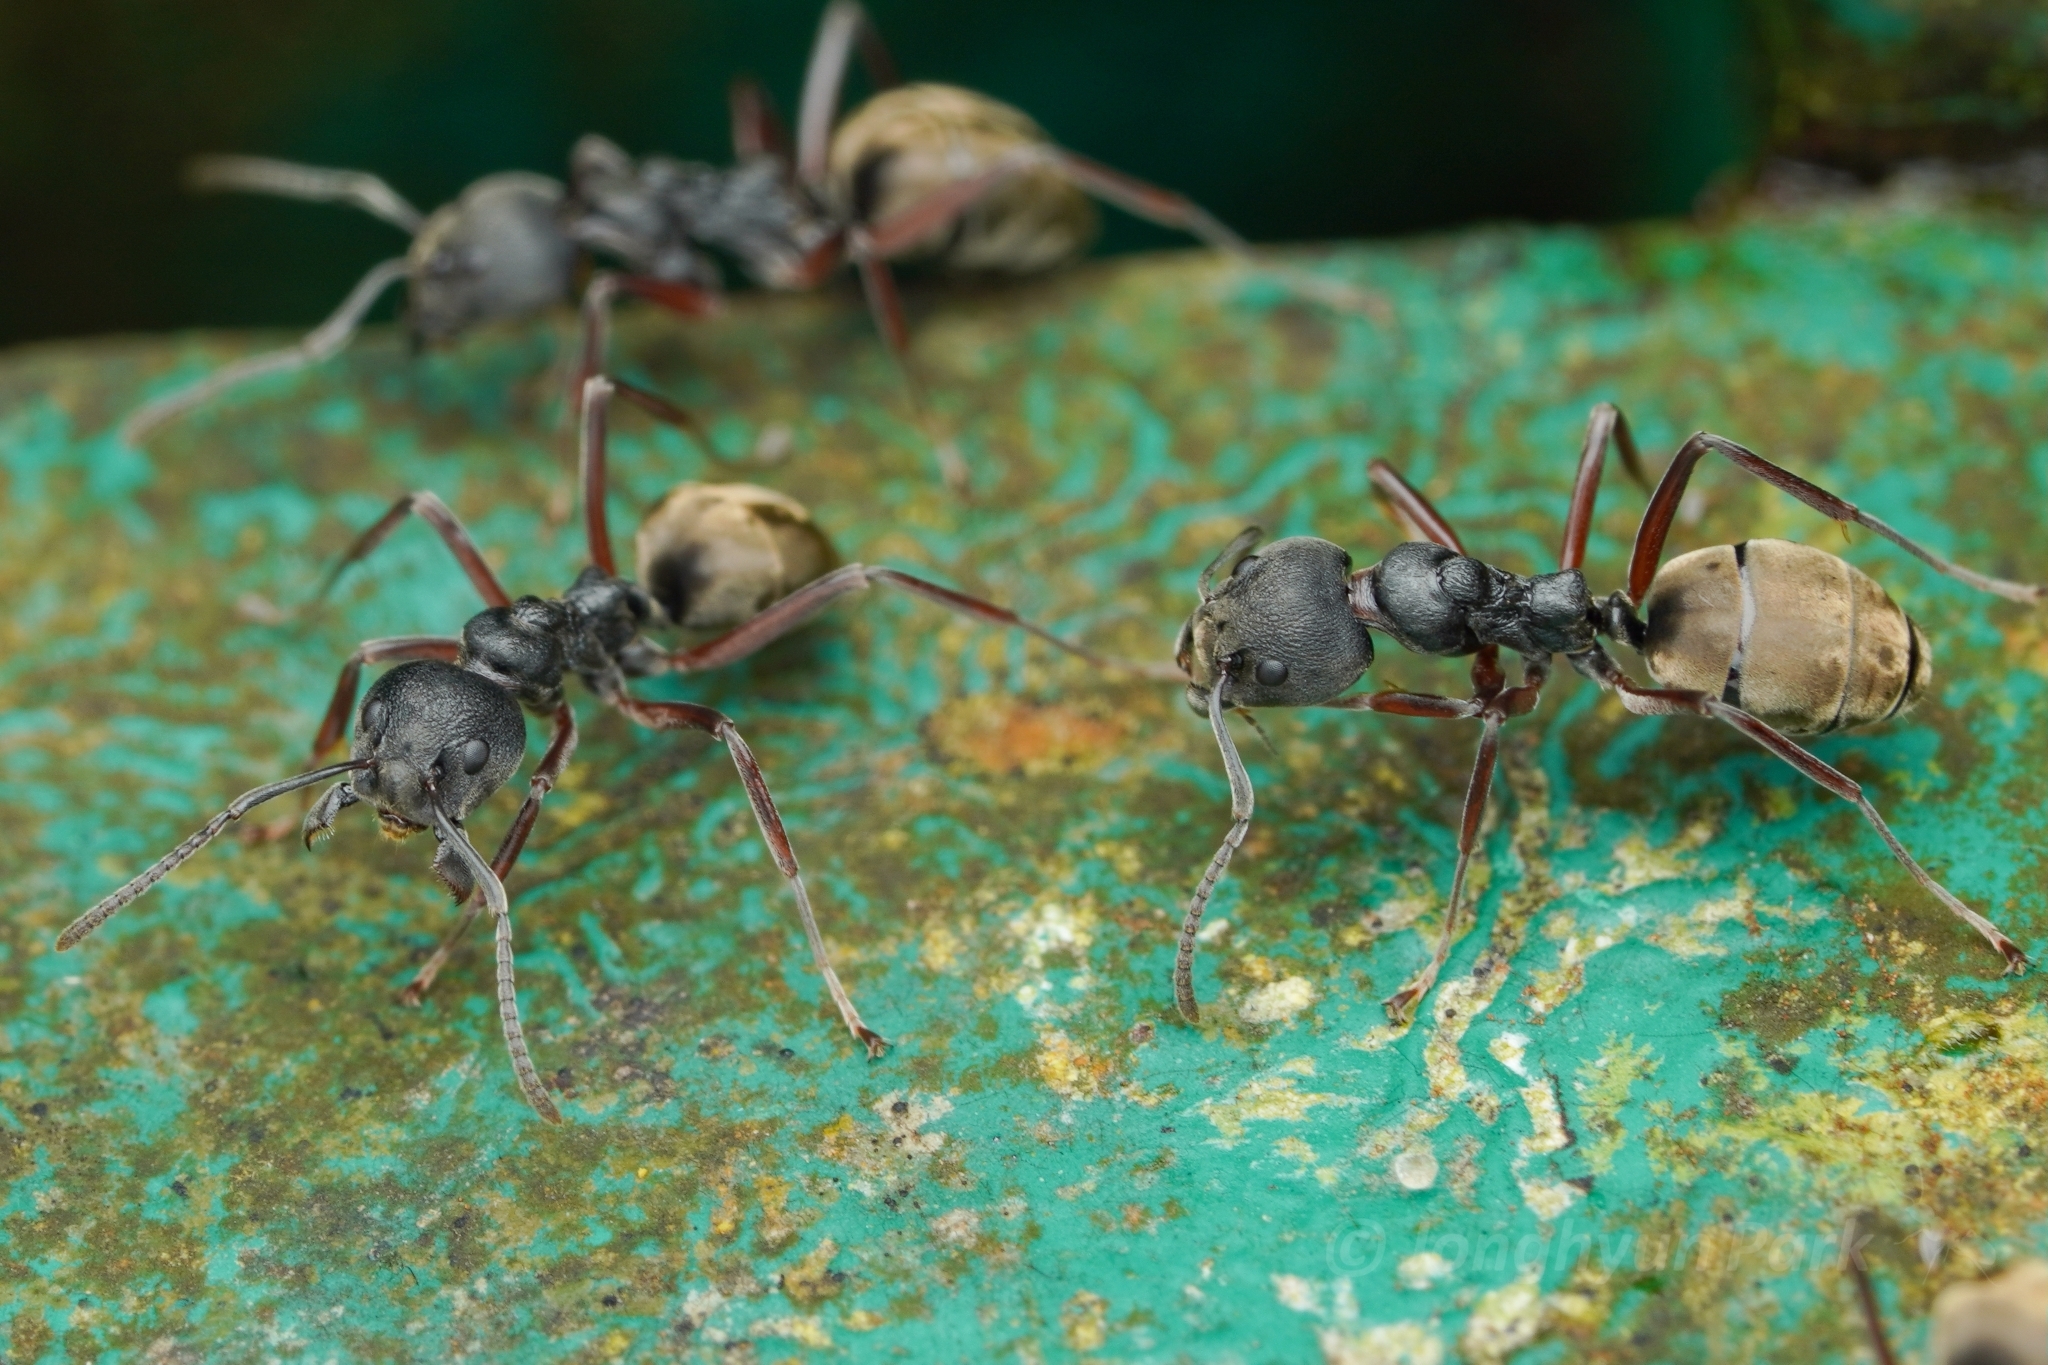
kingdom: Animalia
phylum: Arthropoda
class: Insecta
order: Hymenoptera
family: Formicidae
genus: Dolichoderus
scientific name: Dolichoderus
